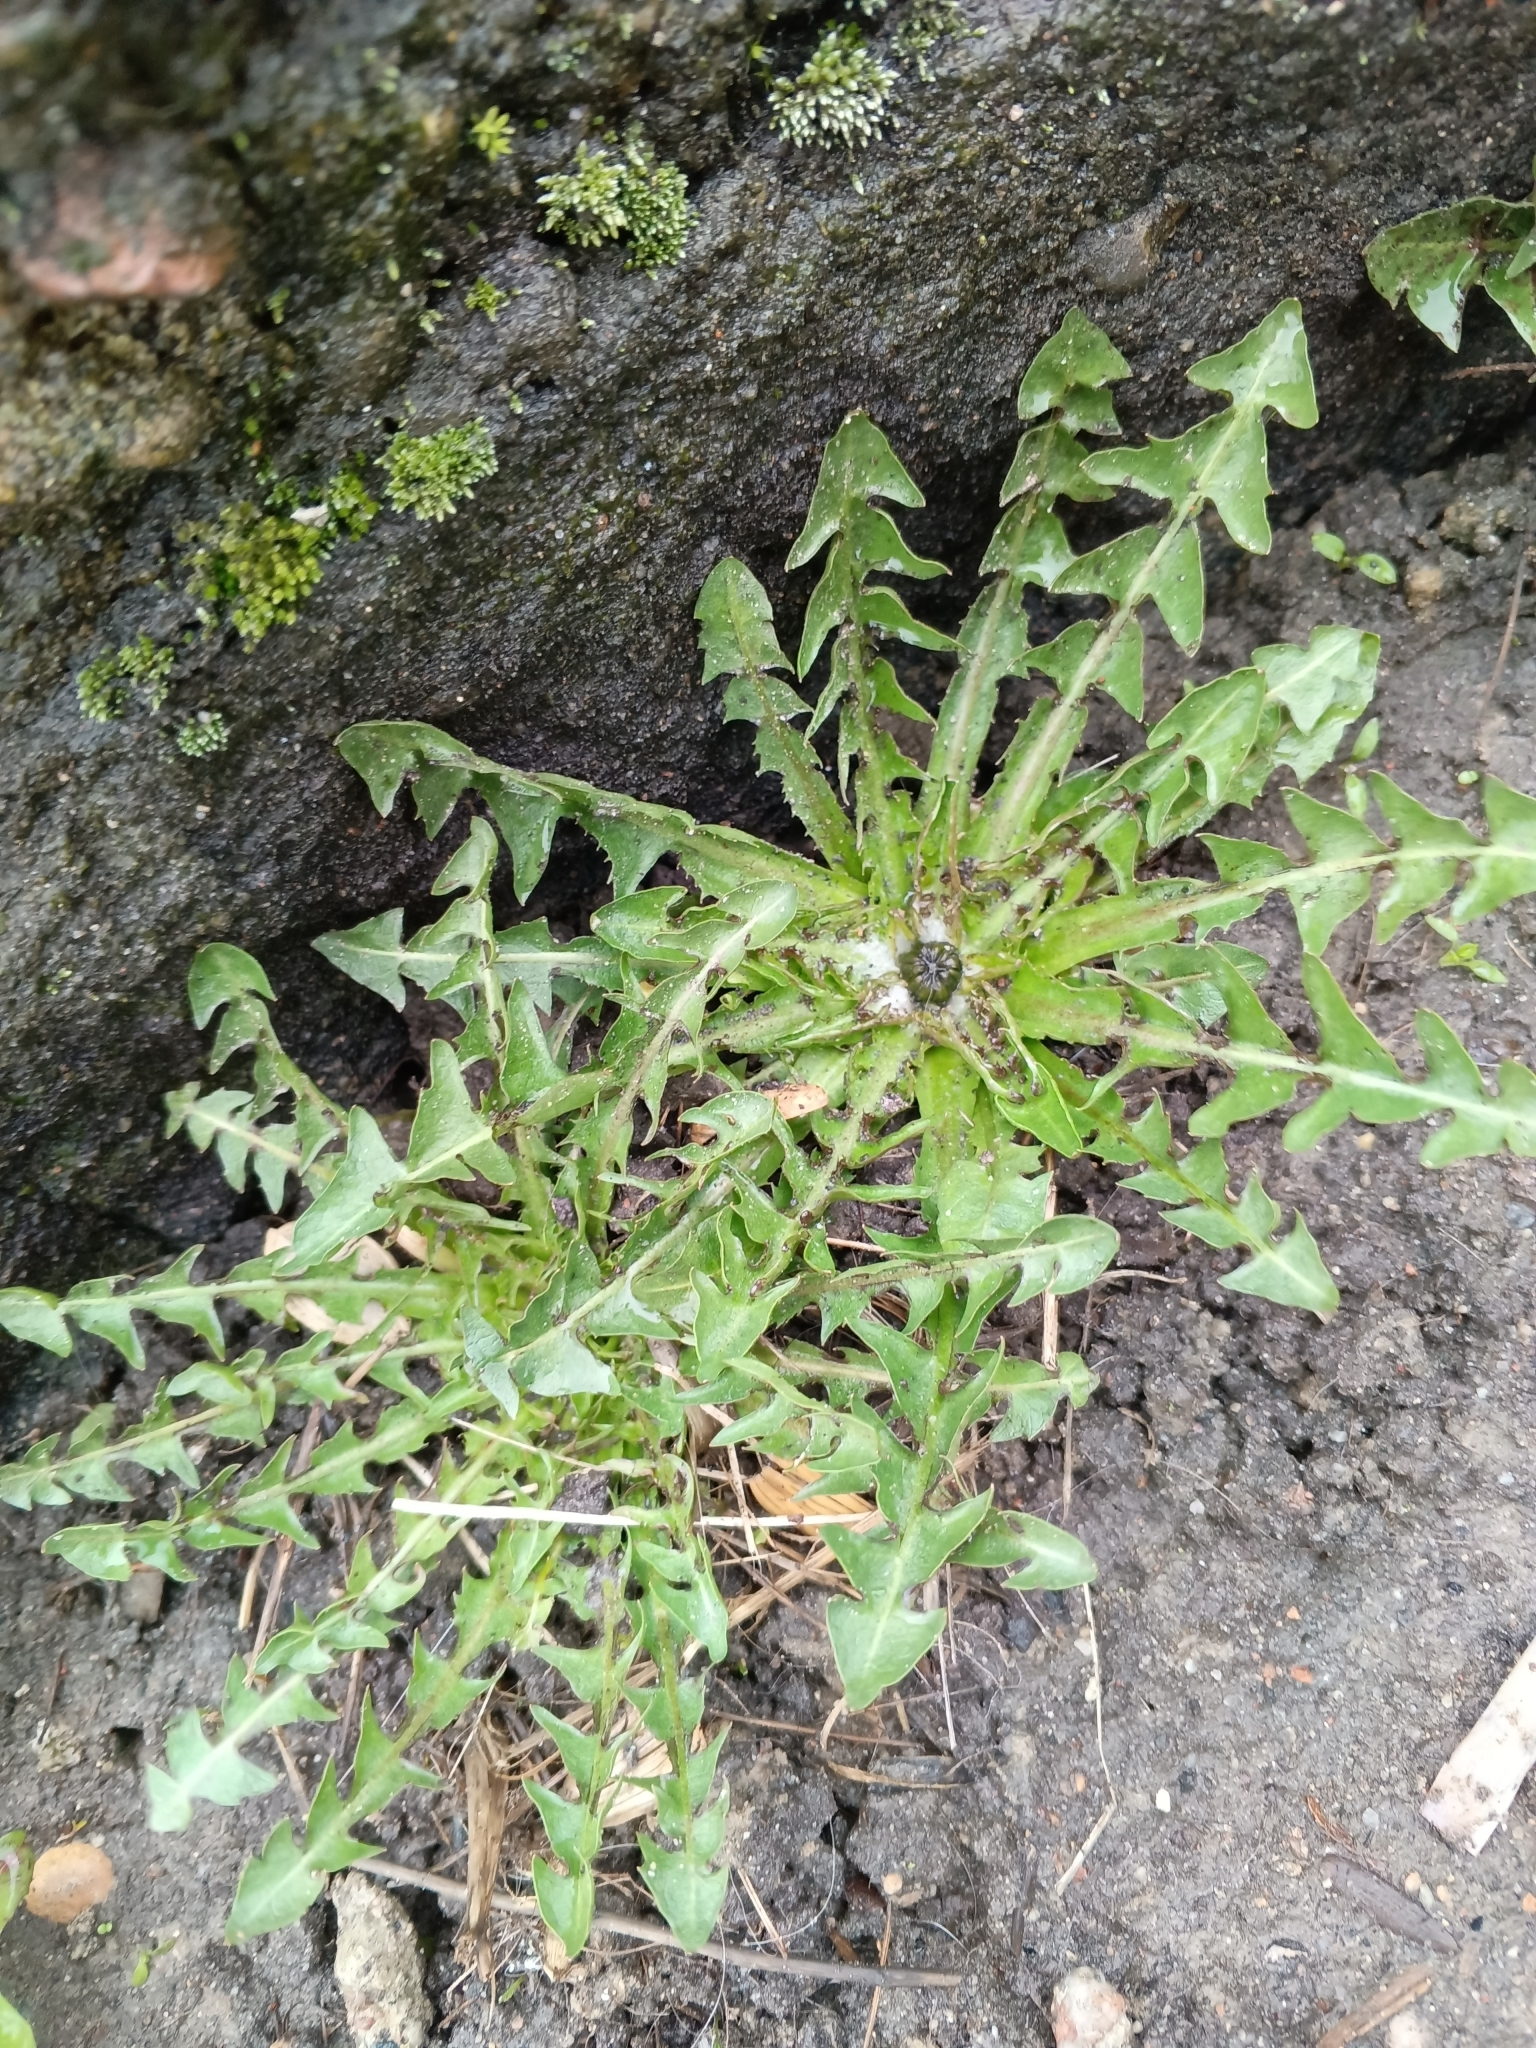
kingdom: Plantae
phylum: Tracheophyta
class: Magnoliopsida
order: Asterales
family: Asteraceae
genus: Taraxacum
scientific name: Taraxacum officinale
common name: Common dandelion
